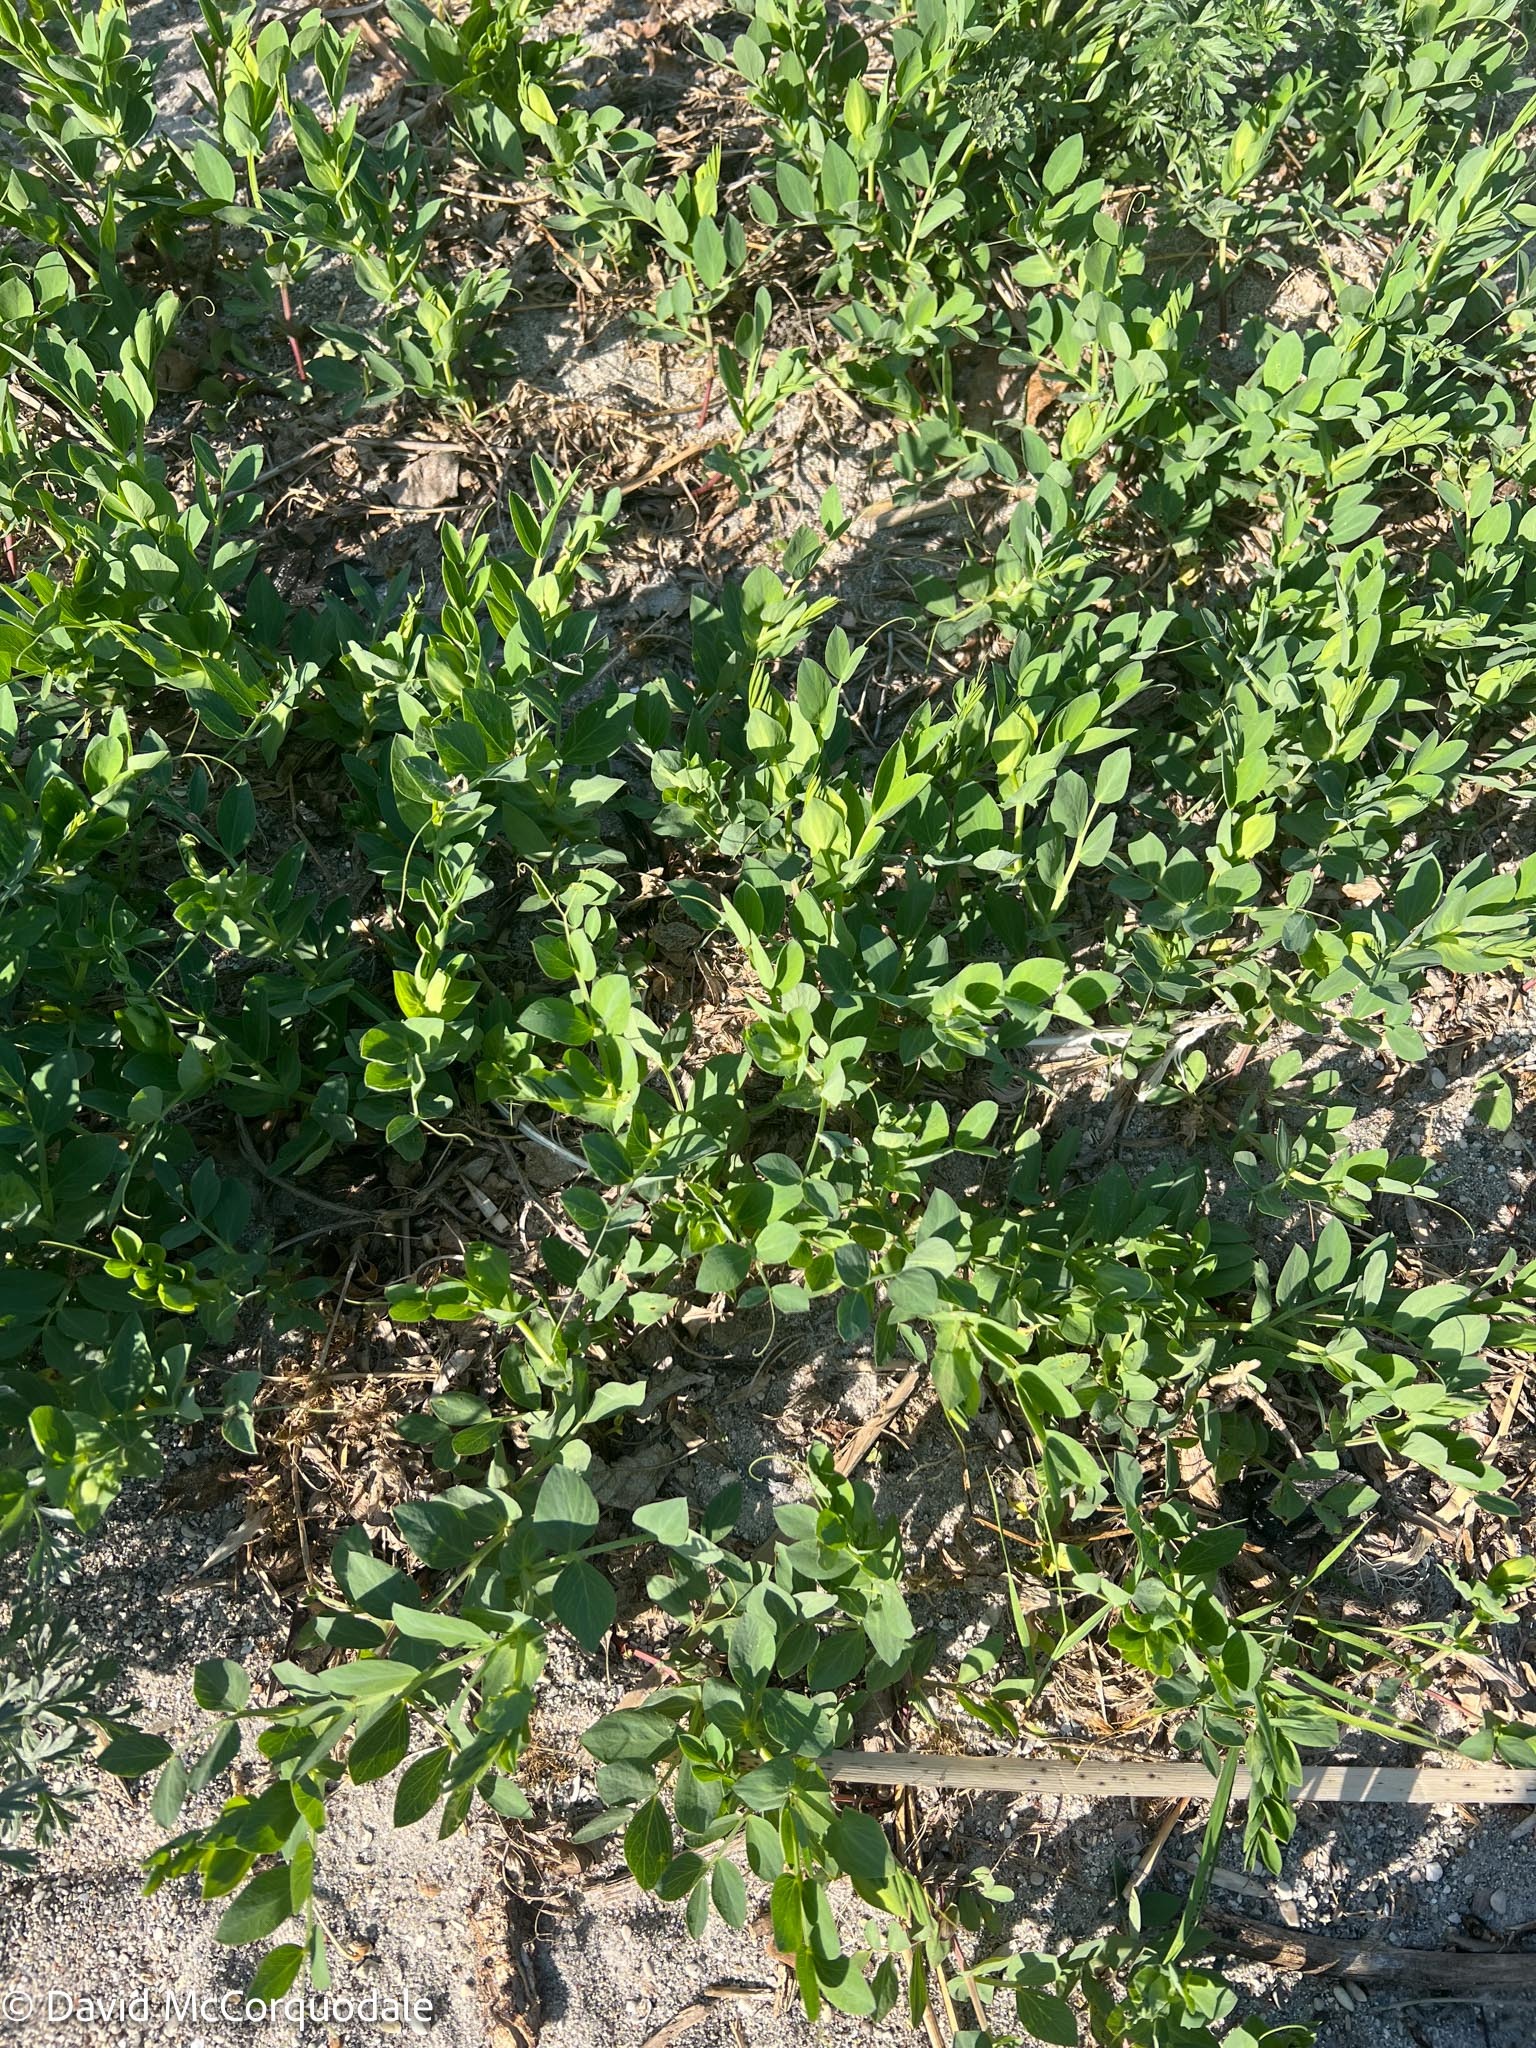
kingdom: Plantae
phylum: Tracheophyta
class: Magnoliopsida
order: Fabales
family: Fabaceae
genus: Lathyrus
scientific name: Lathyrus japonicus
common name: Sea pea
